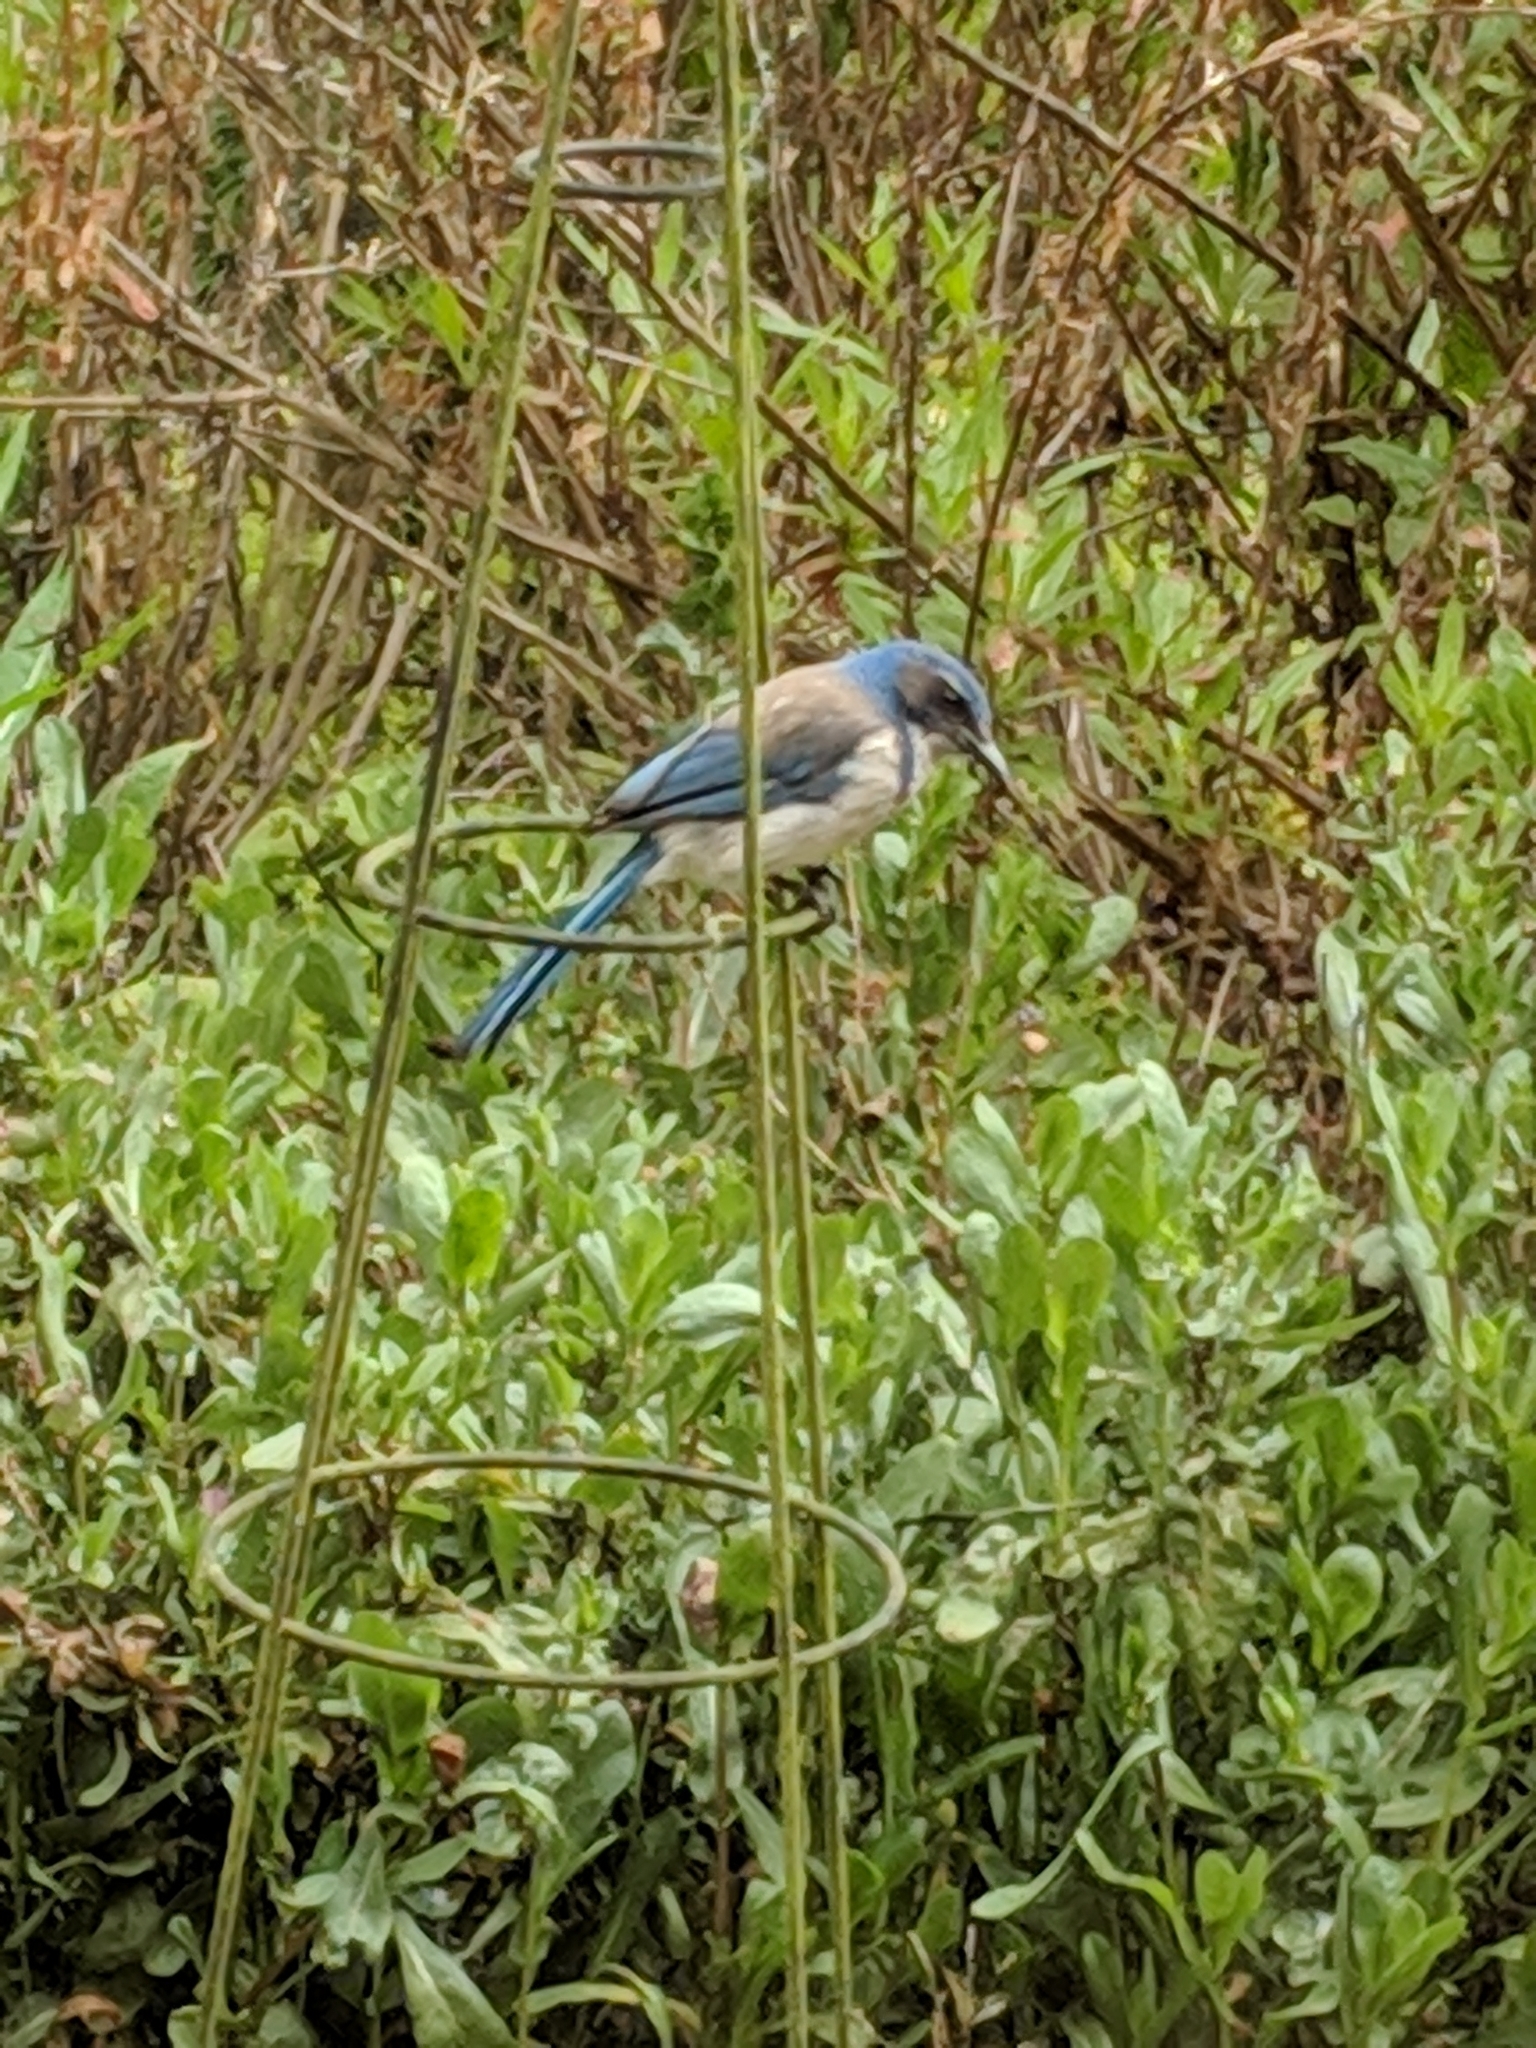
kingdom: Animalia
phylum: Chordata
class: Aves
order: Passeriformes
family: Corvidae
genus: Aphelocoma
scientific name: Aphelocoma californica
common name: California scrub-jay
